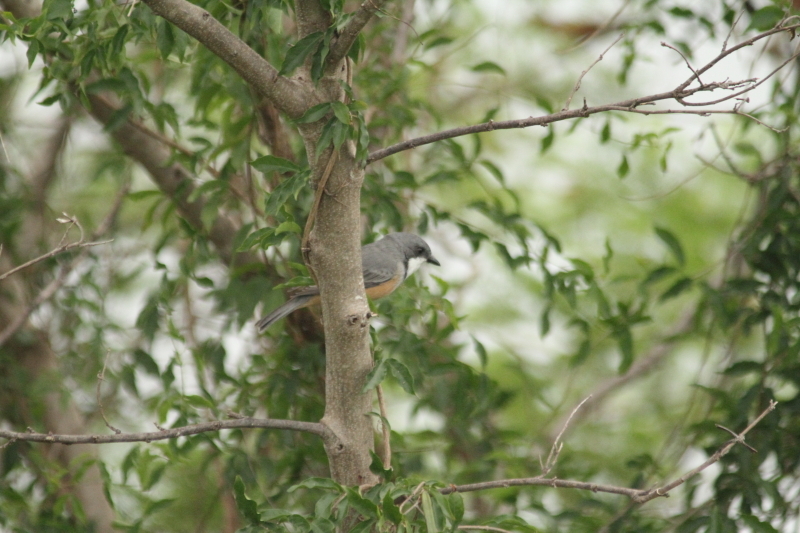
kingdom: Animalia
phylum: Chordata
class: Aves
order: Passeriformes
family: Pachycephalidae
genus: Pachycephala
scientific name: Pachycephala rufiventris
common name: Rufous whistler
